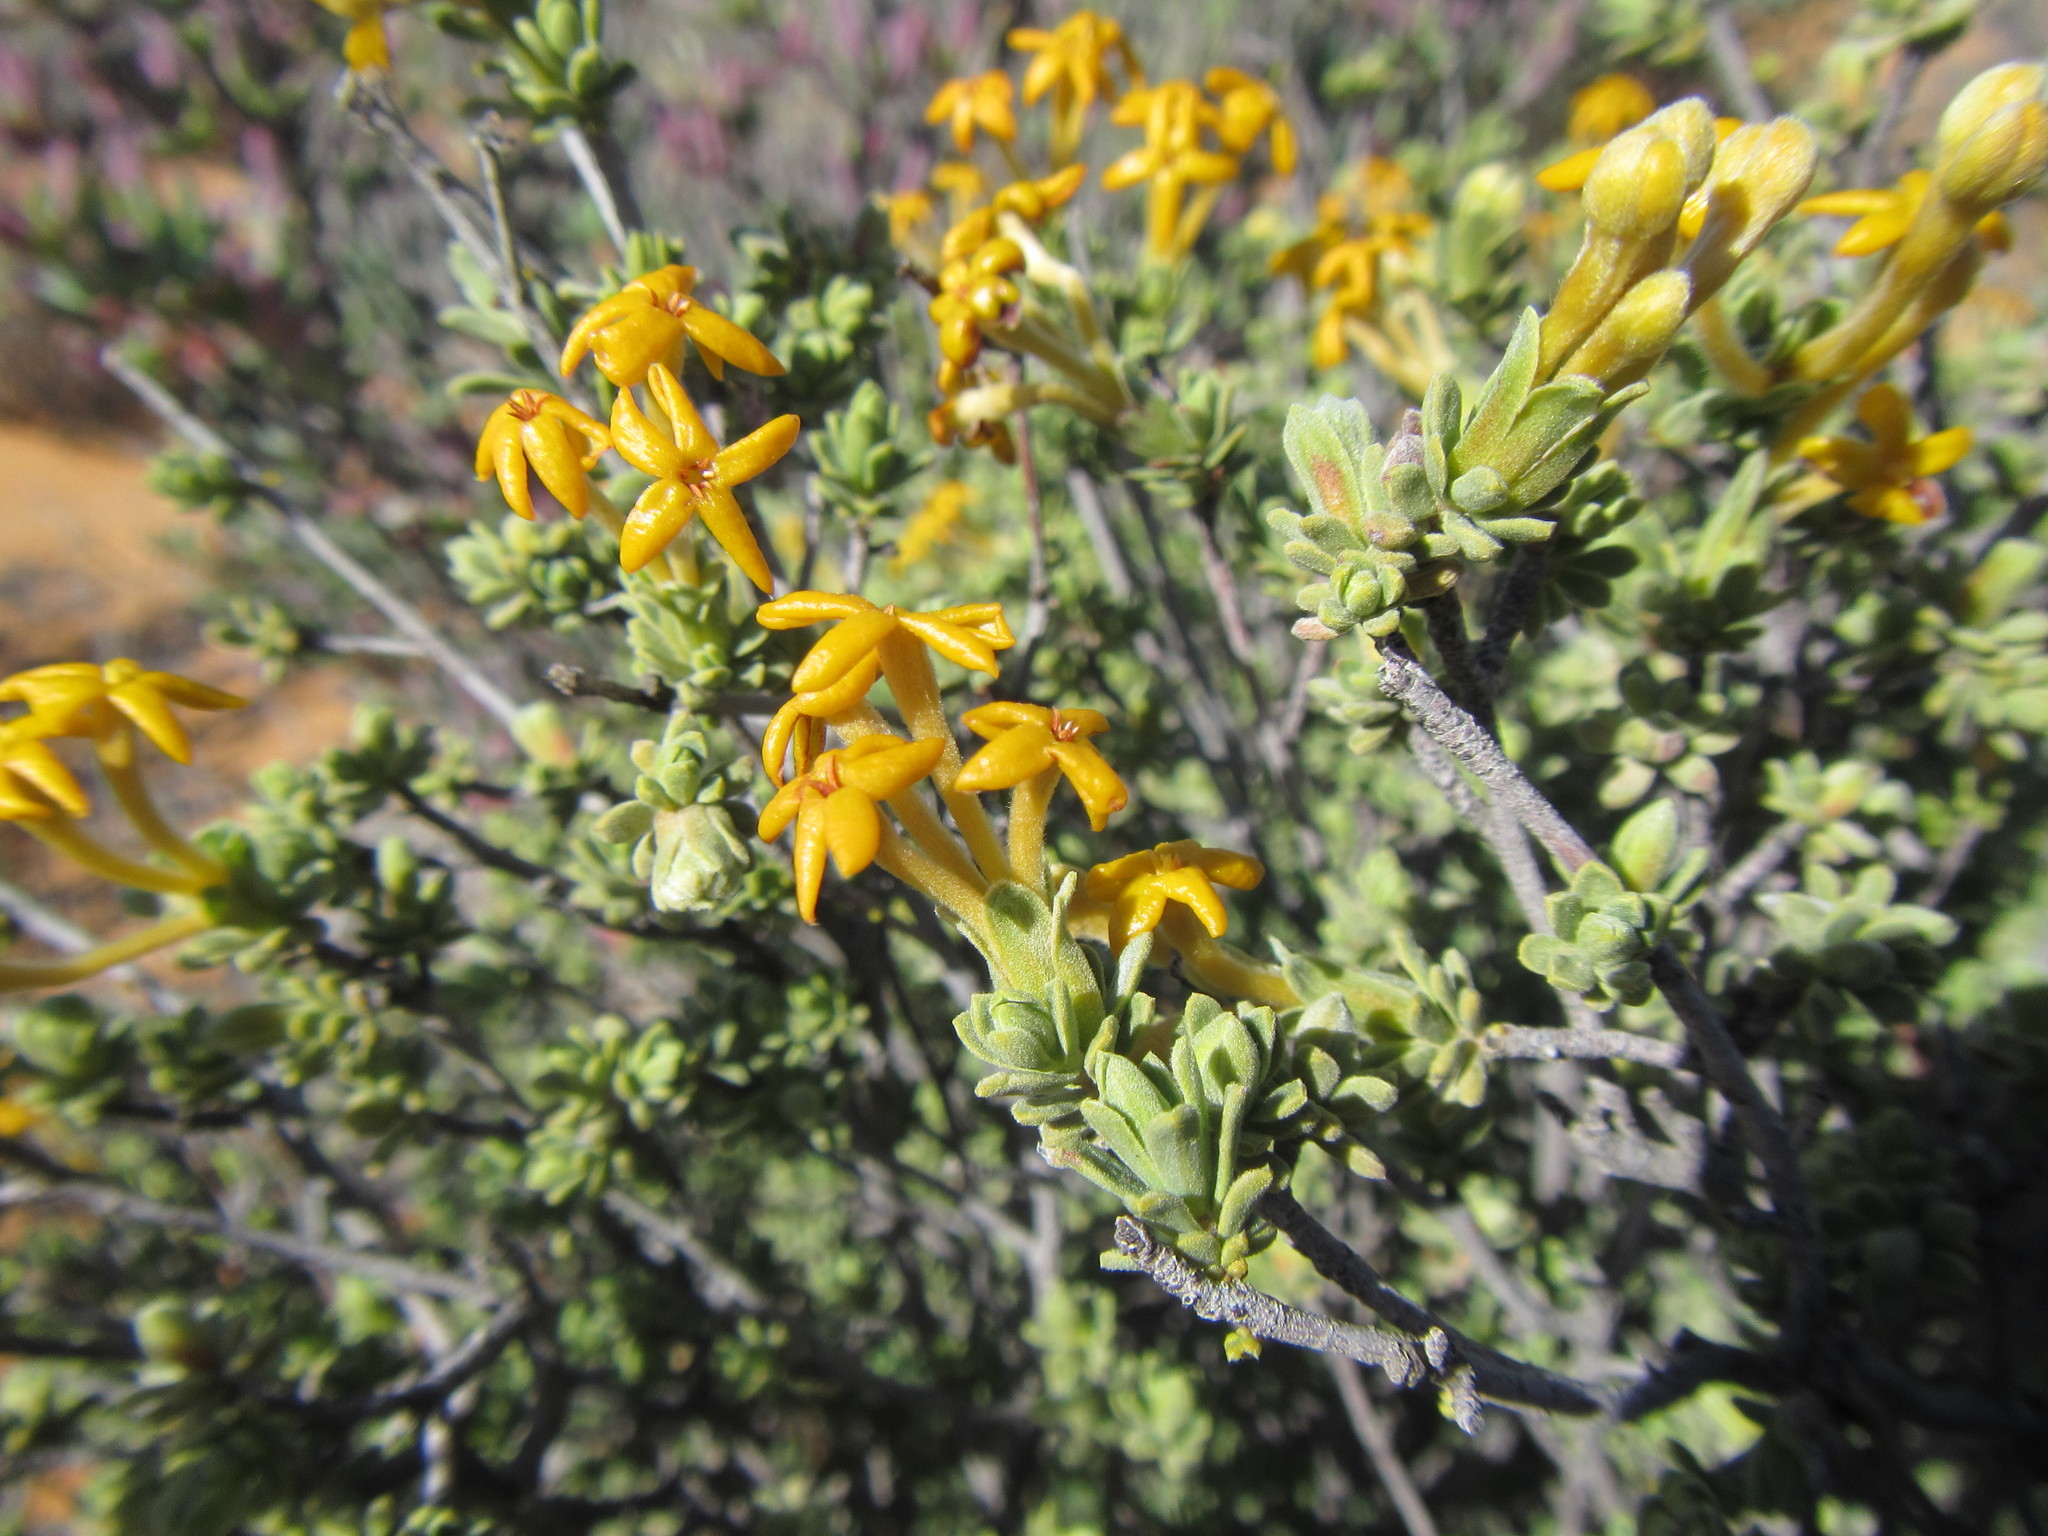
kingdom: Plantae
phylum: Tracheophyta
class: Magnoliopsida
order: Malvales
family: Thymelaeaceae
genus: Gnidia
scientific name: Gnidia deserticola
